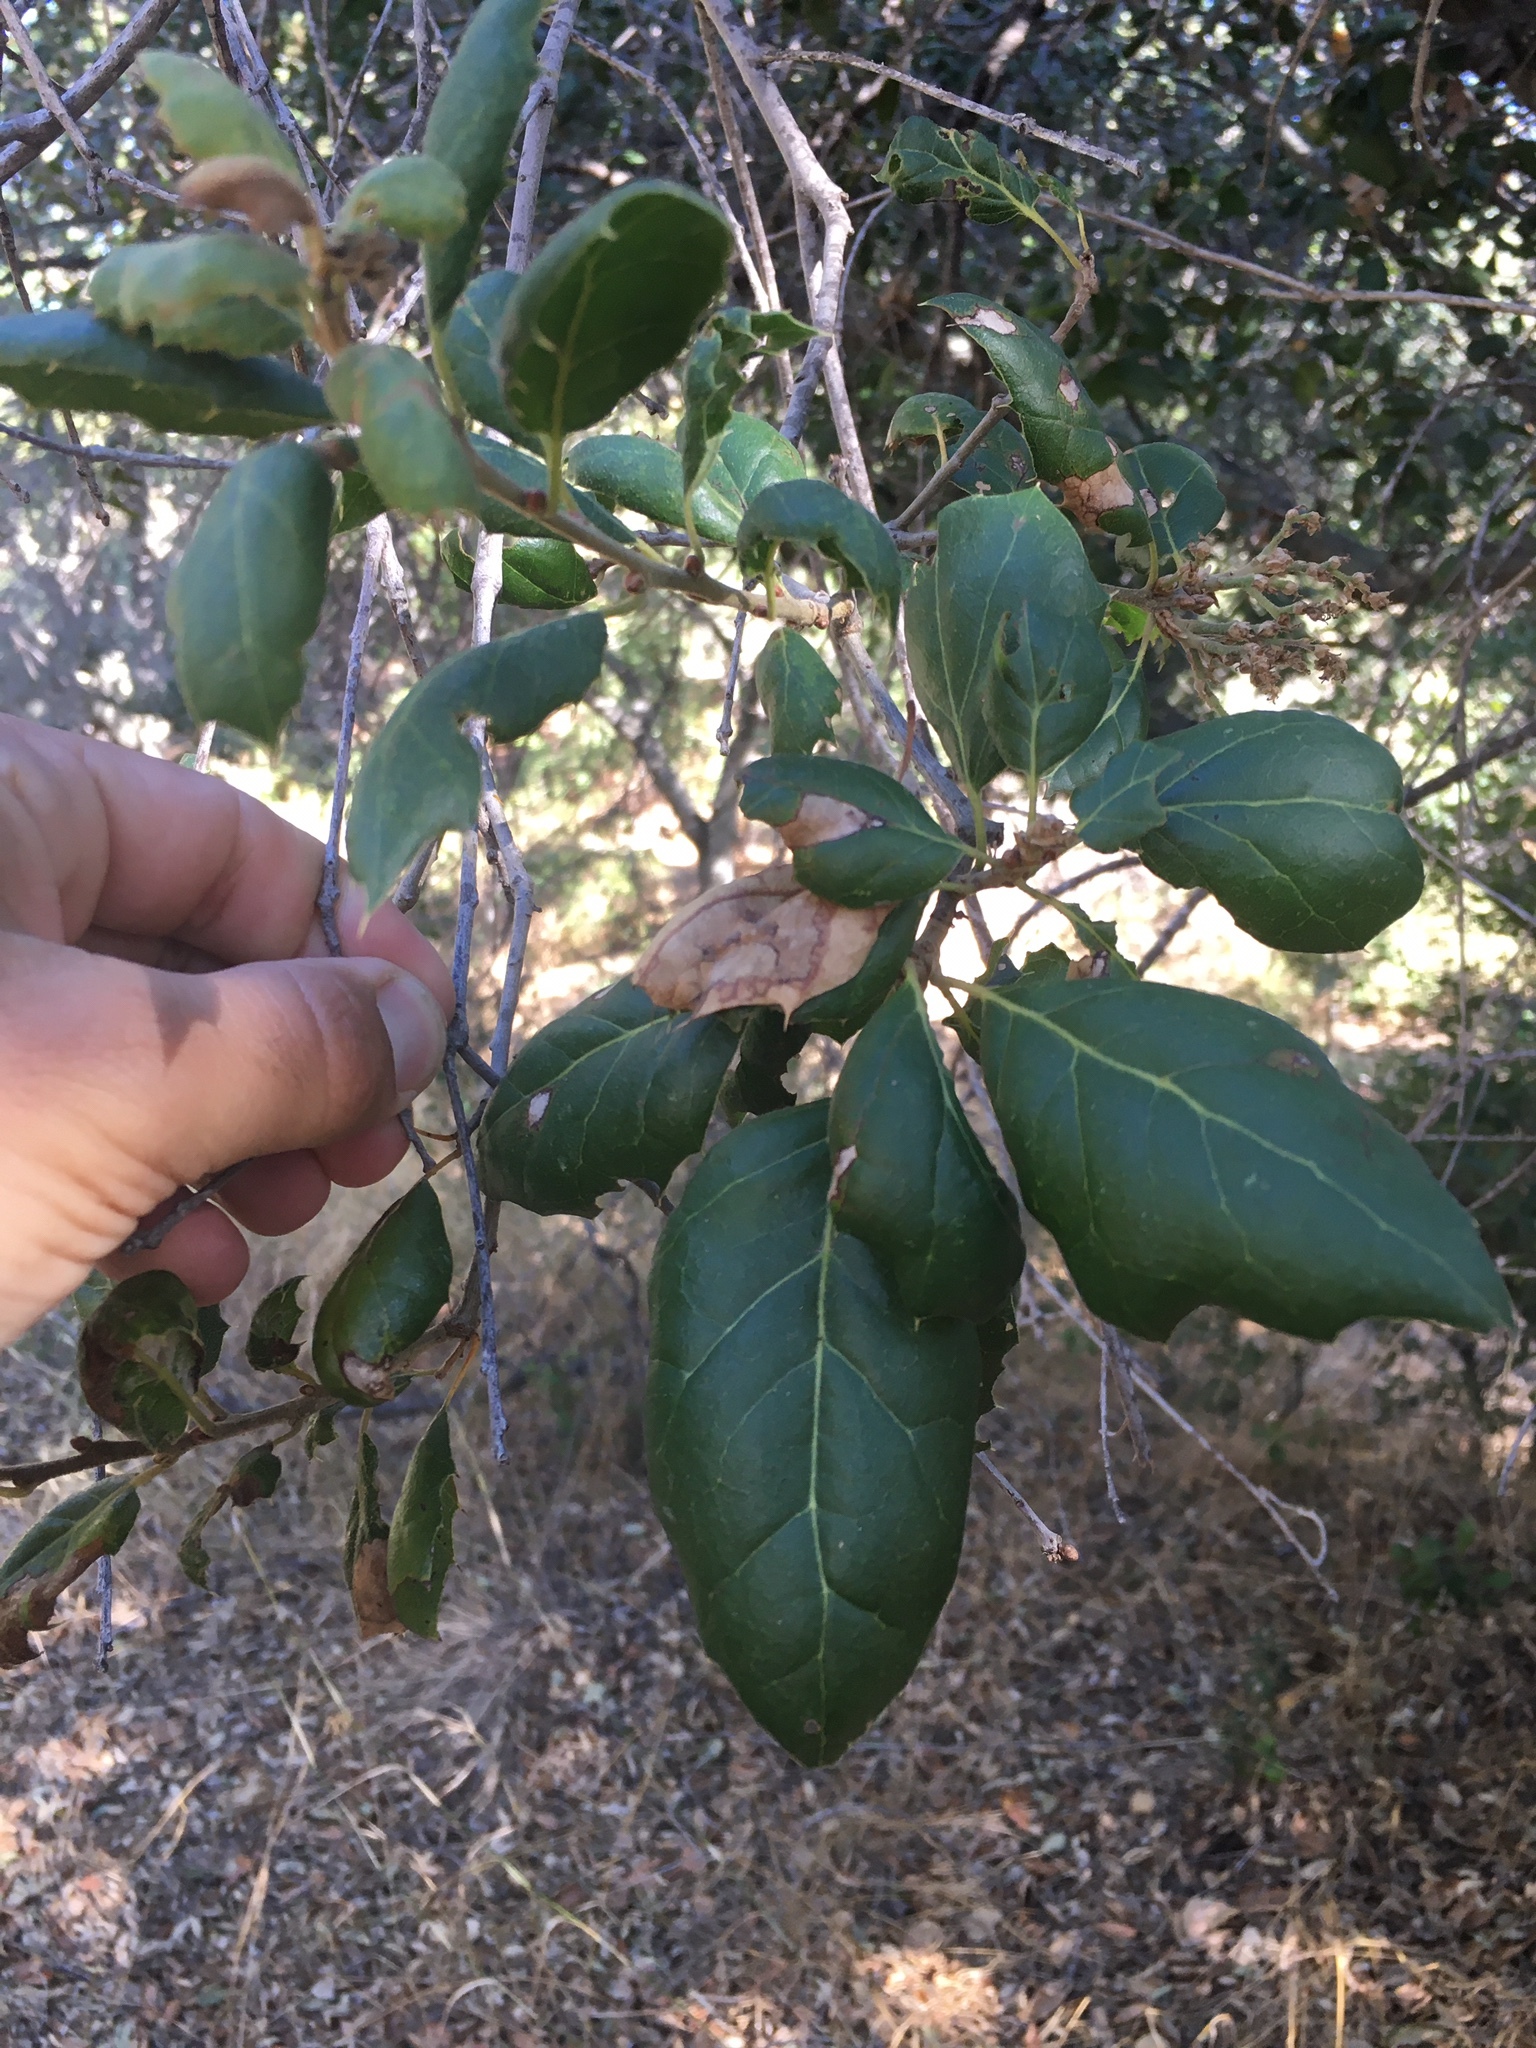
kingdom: Plantae
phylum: Tracheophyta
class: Magnoliopsida
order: Fagales
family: Fagaceae
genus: Quercus
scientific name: Quercus agrifolia
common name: California live oak
